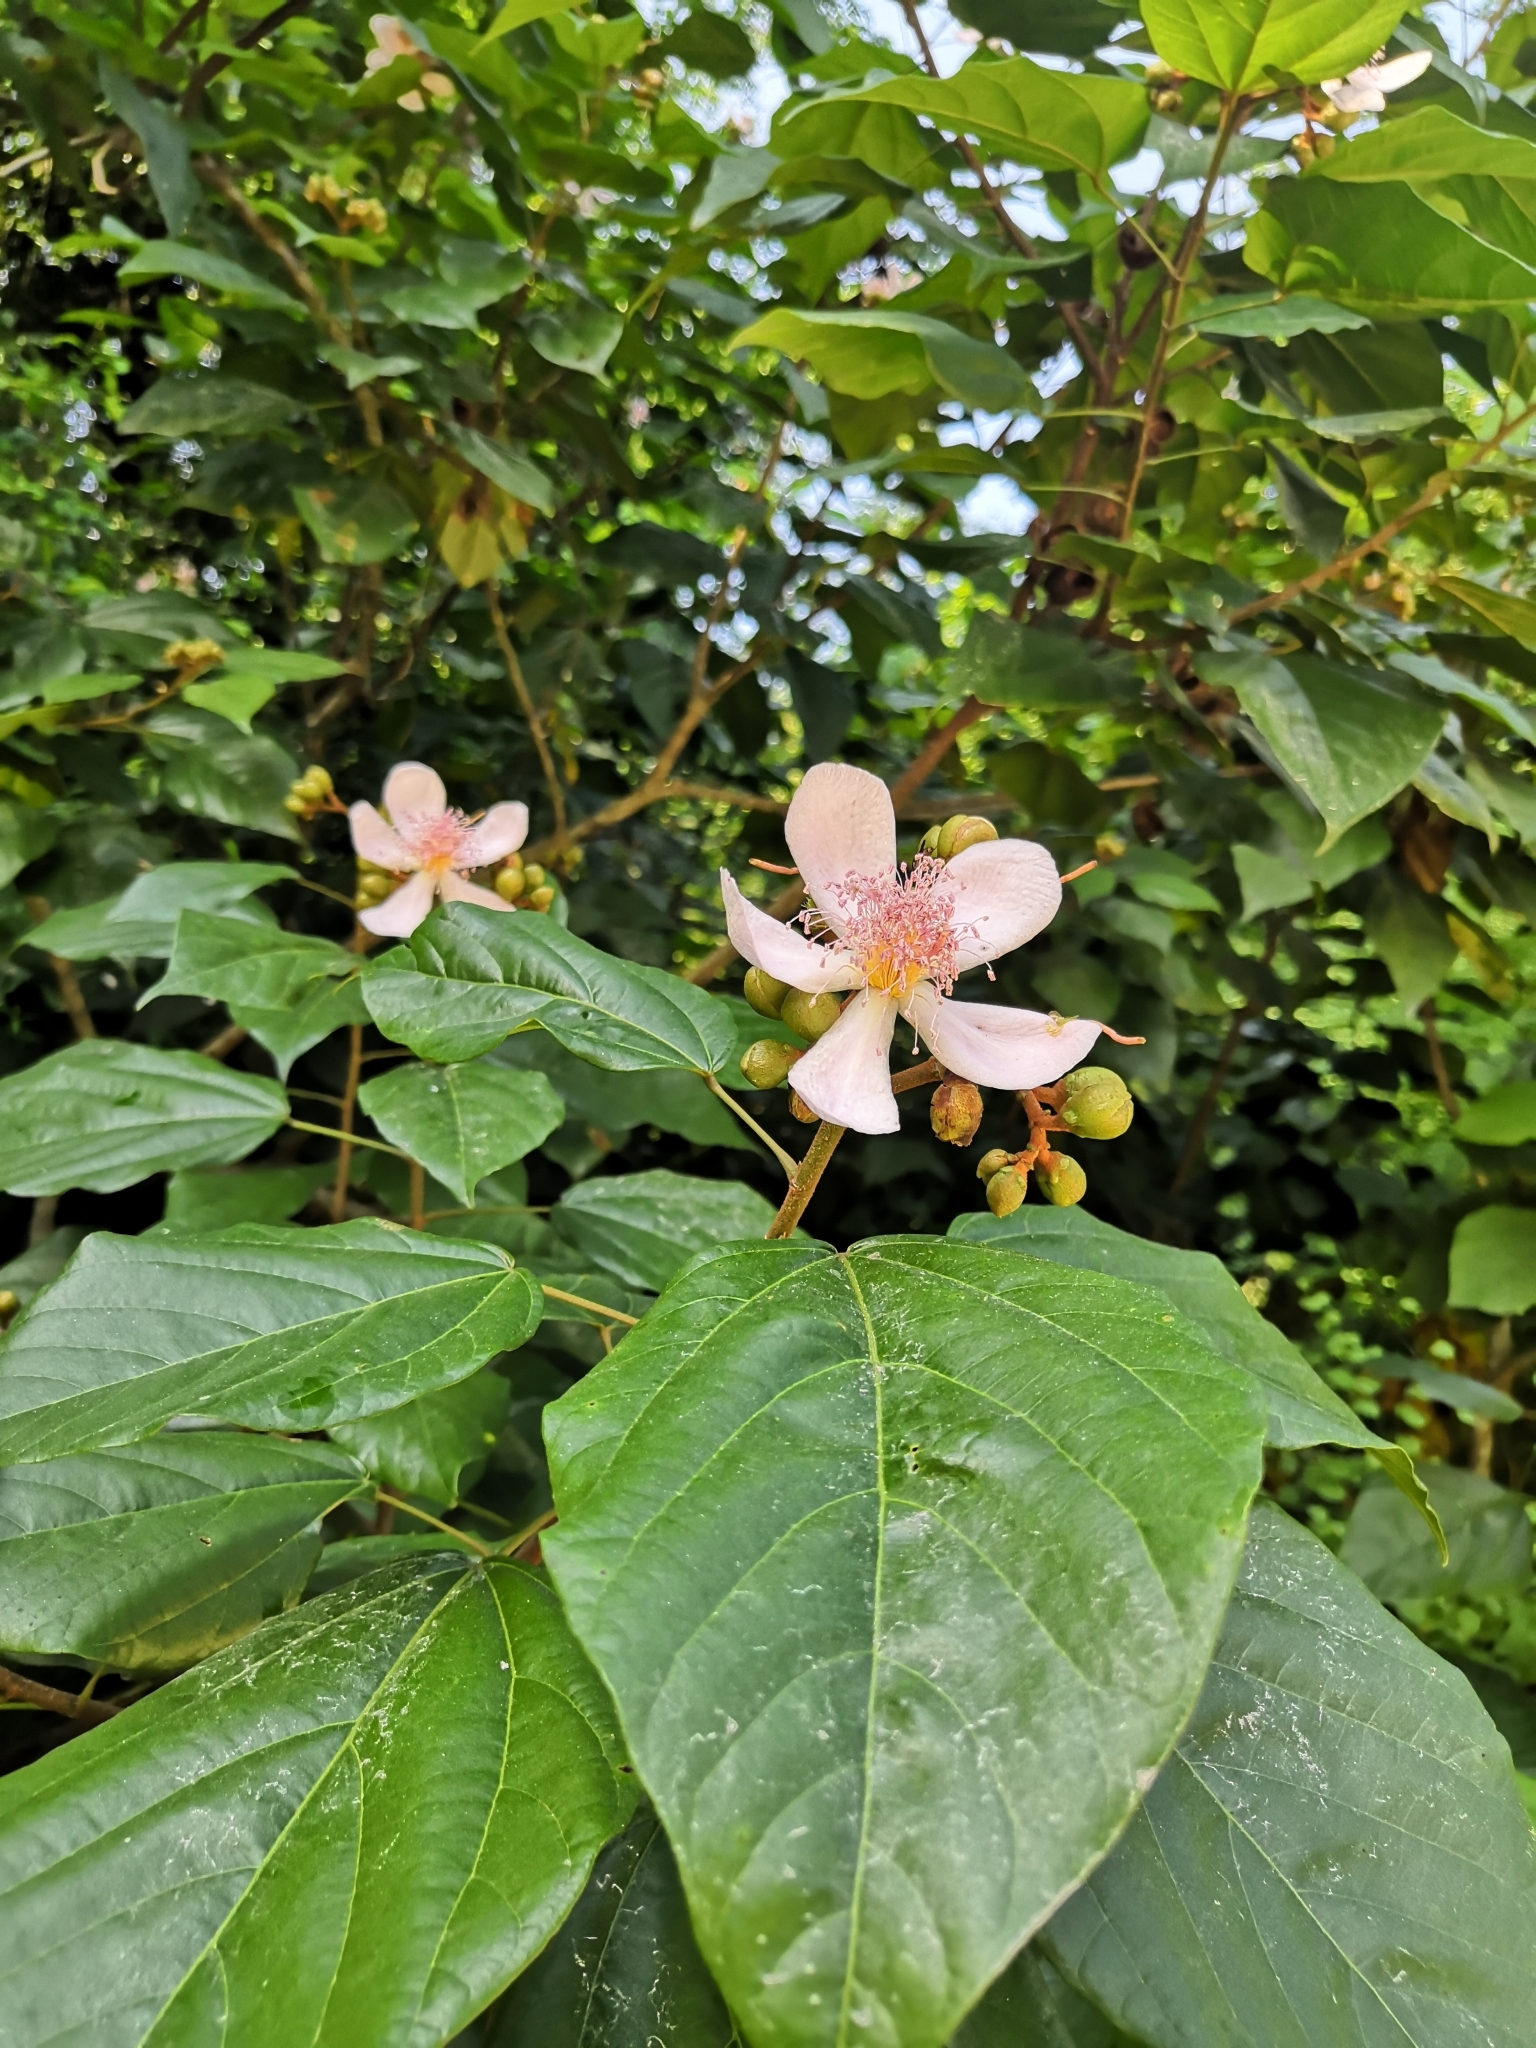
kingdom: Plantae
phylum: Tracheophyta
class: Magnoliopsida
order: Malvales
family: Bixaceae
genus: Bixa
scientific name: Bixa orellana
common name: Lipsticktree
